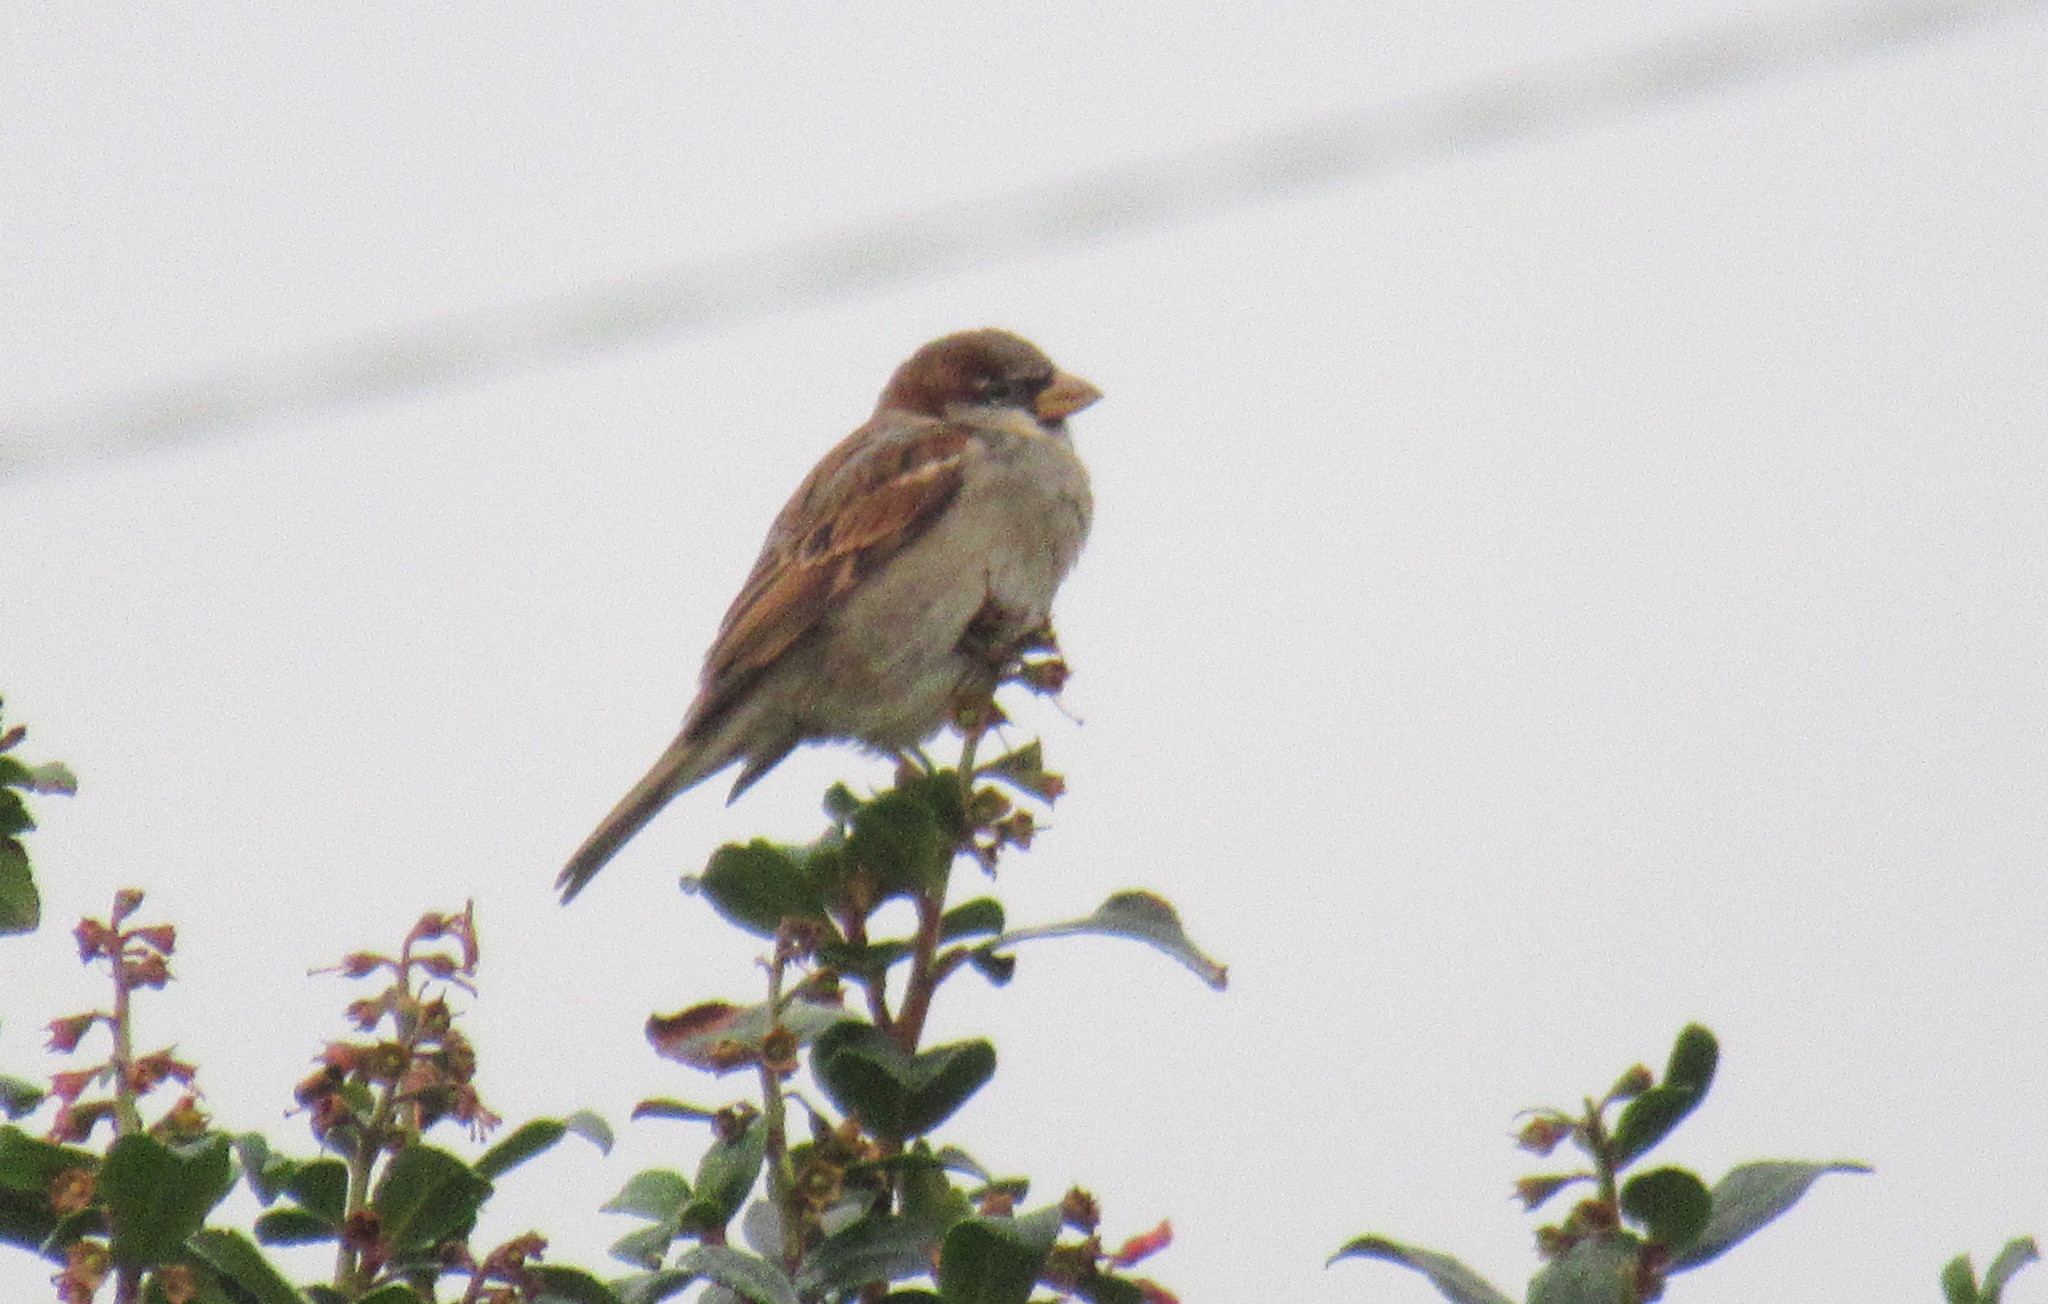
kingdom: Animalia
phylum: Chordata
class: Aves
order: Passeriformes
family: Passeridae
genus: Passer
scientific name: Passer domesticus
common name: House sparrow
